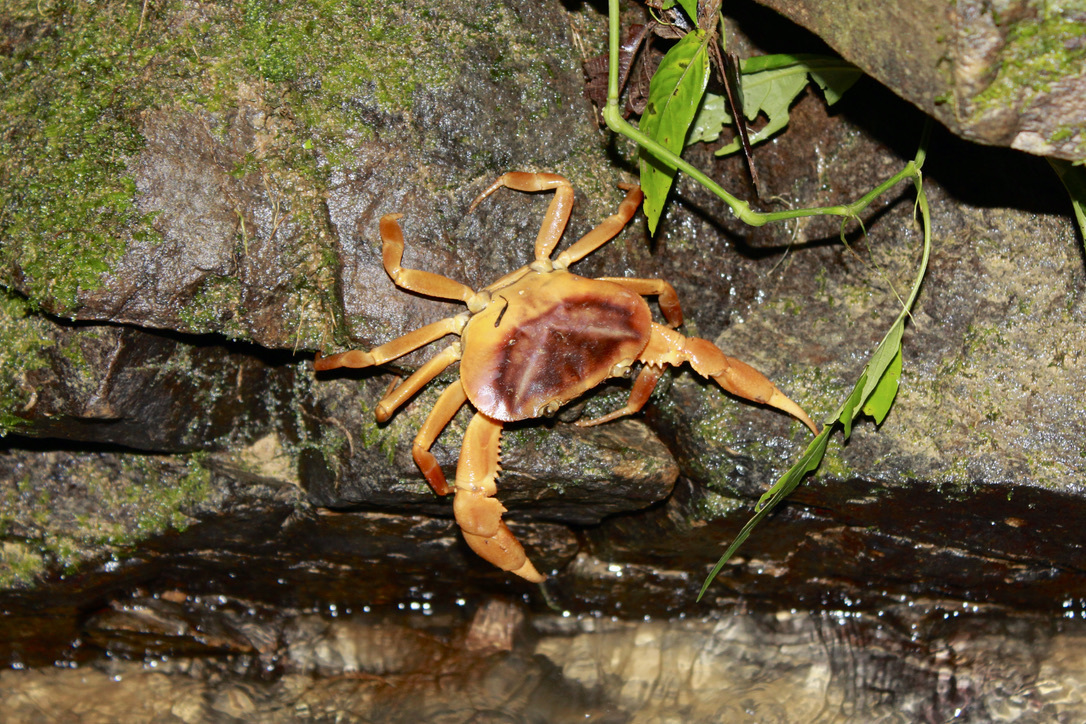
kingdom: Animalia
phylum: Arthropoda
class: Malacostraca
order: Decapoda
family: Pseudothelphusidae
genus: Rodriguezus
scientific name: Rodriguezus garmani
